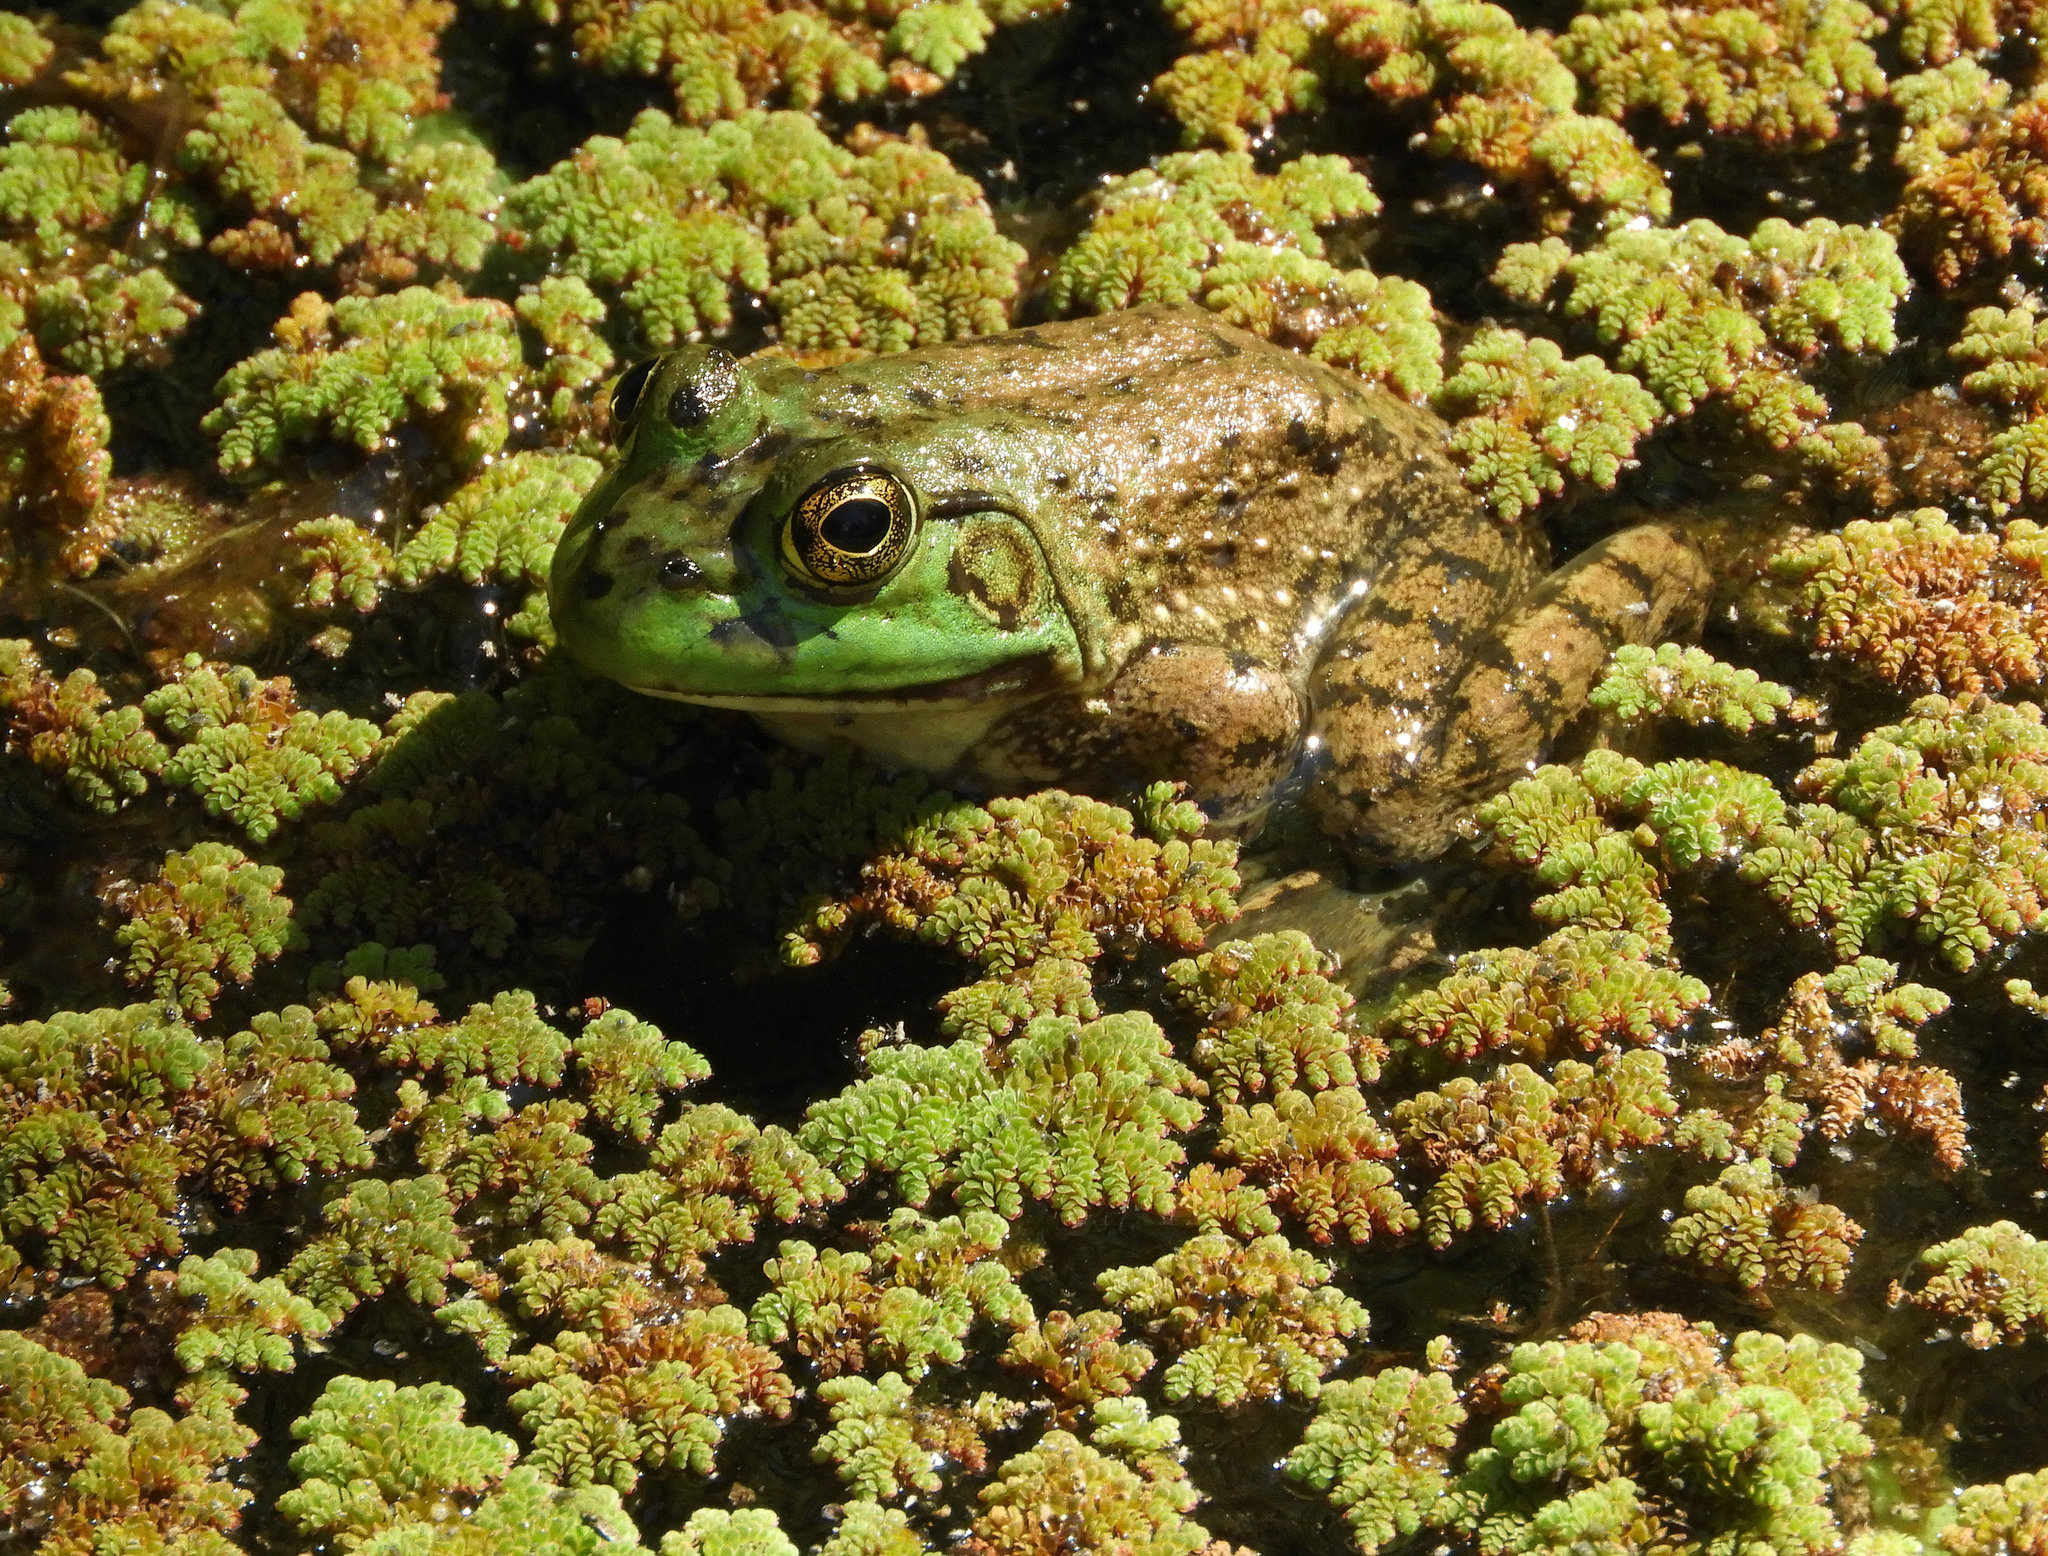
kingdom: Animalia
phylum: Chordata
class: Amphibia
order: Anura
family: Ranidae
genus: Lithobates
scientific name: Lithobates catesbeianus
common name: American bullfrog
